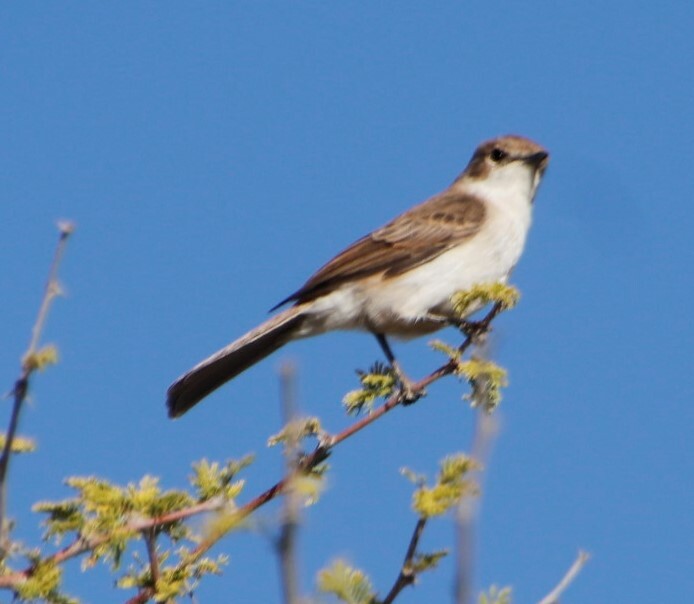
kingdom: Animalia
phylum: Chordata
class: Aves
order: Passeriformes
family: Muscicapidae
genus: Bradornis
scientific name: Bradornis mariquensis
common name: Marico flycatcher
